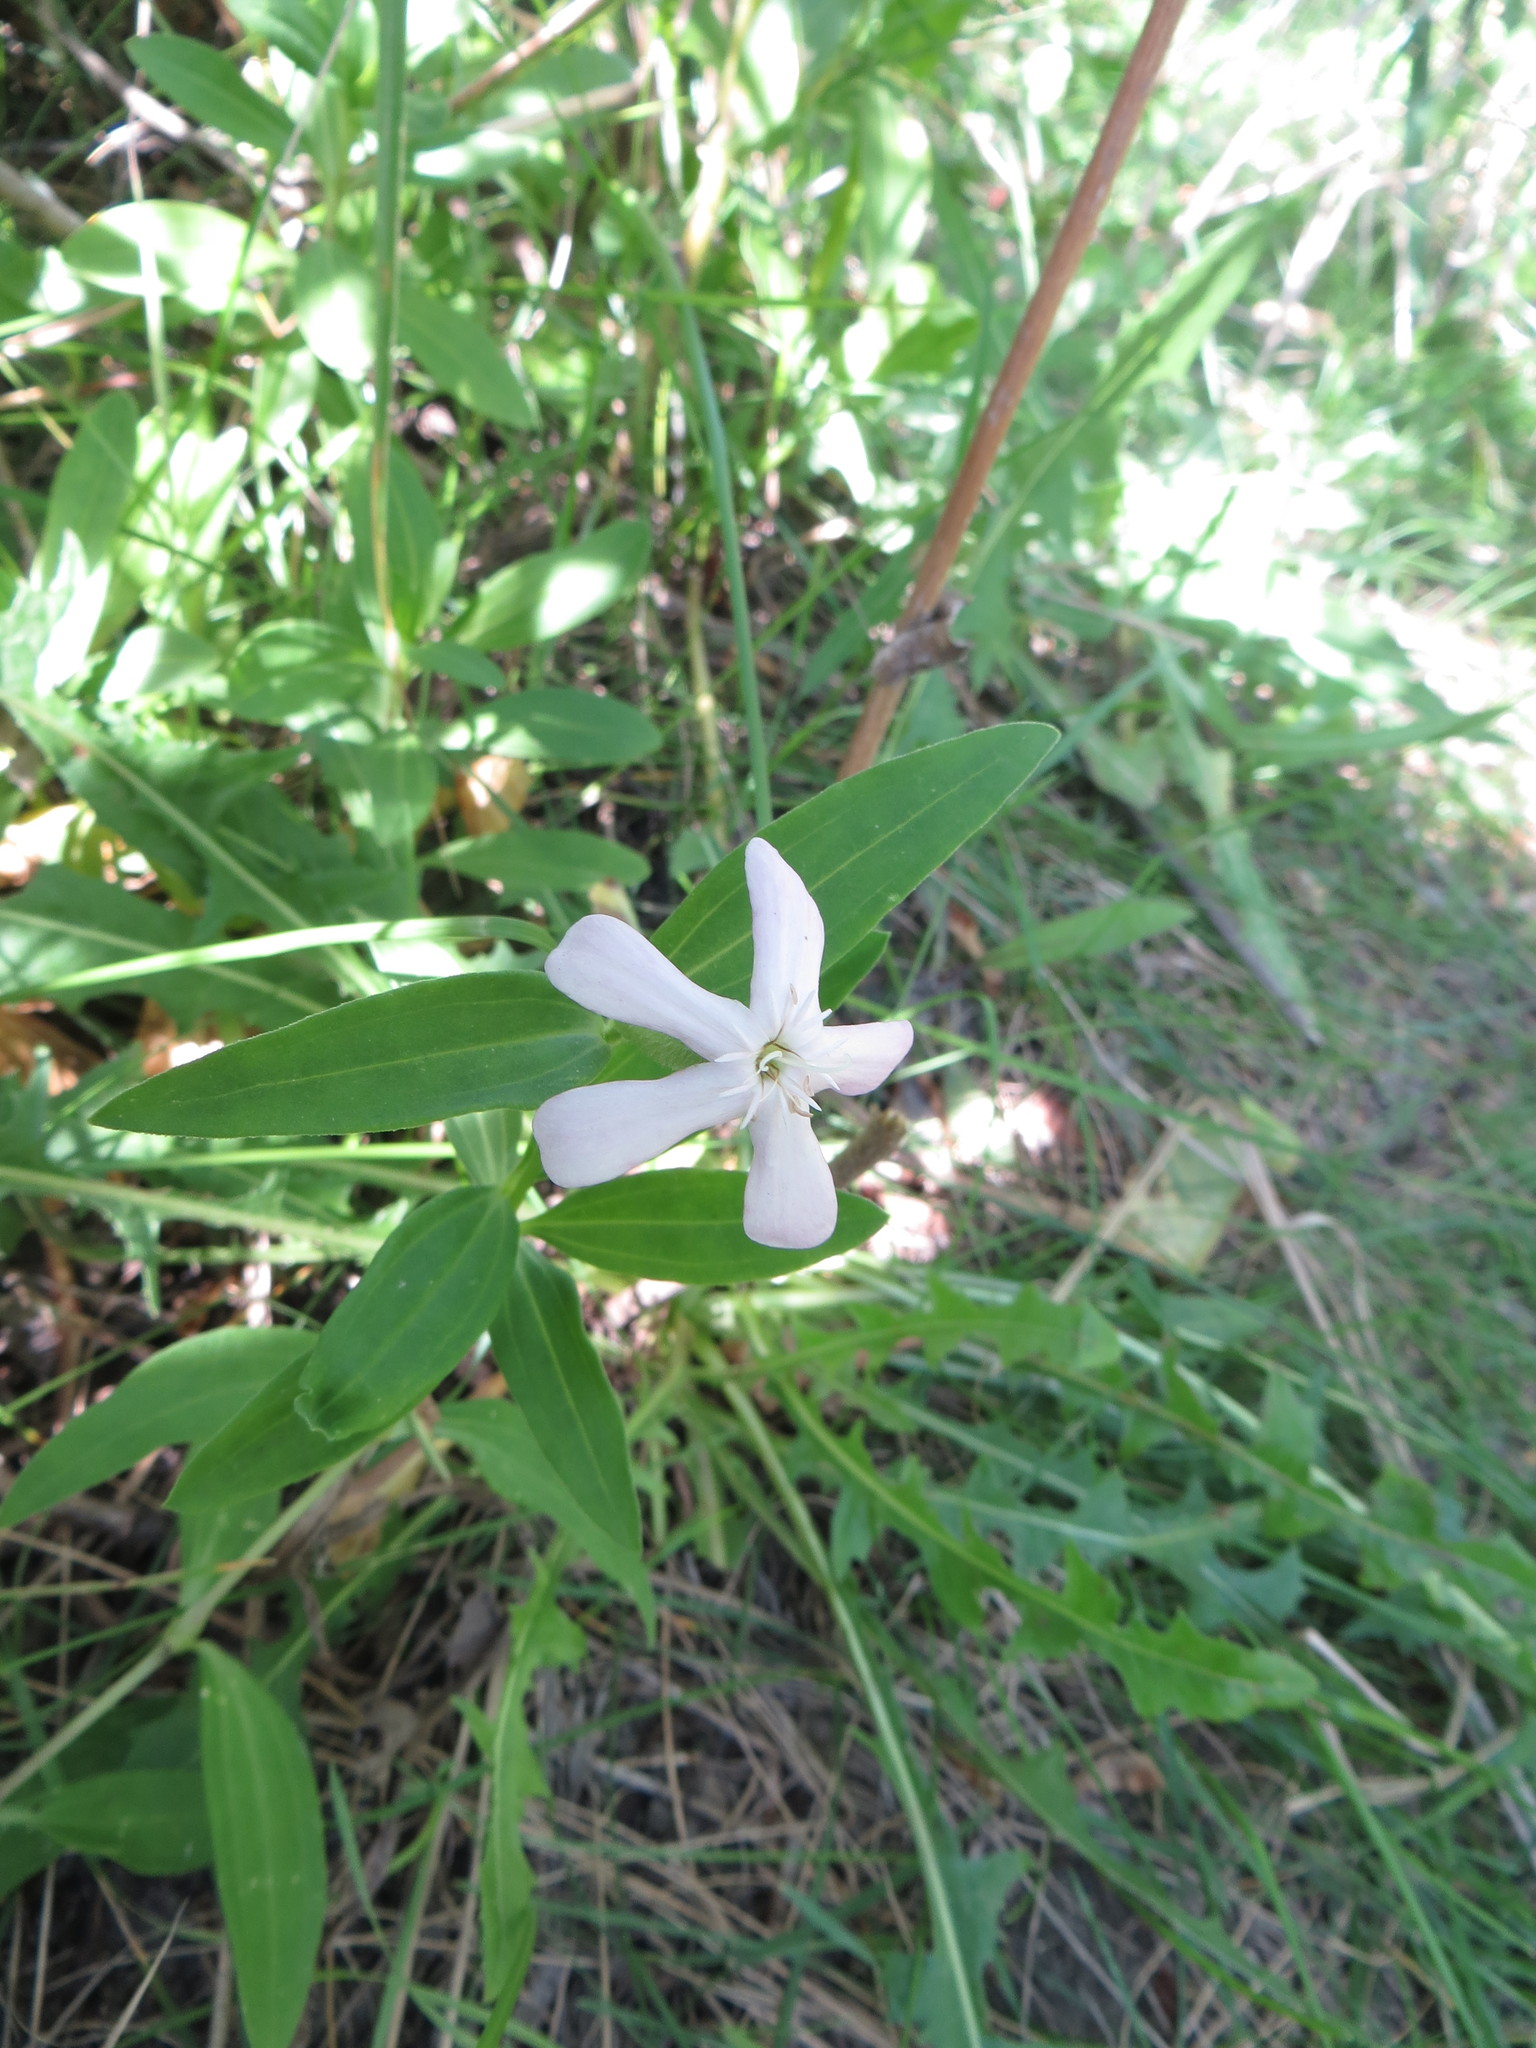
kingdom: Plantae
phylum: Tracheophyta
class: Magnoliopsida
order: Caryophyllales
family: Caryophyllaceae
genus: Saponaria
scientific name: Saponaria officinalis
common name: Soapwort
